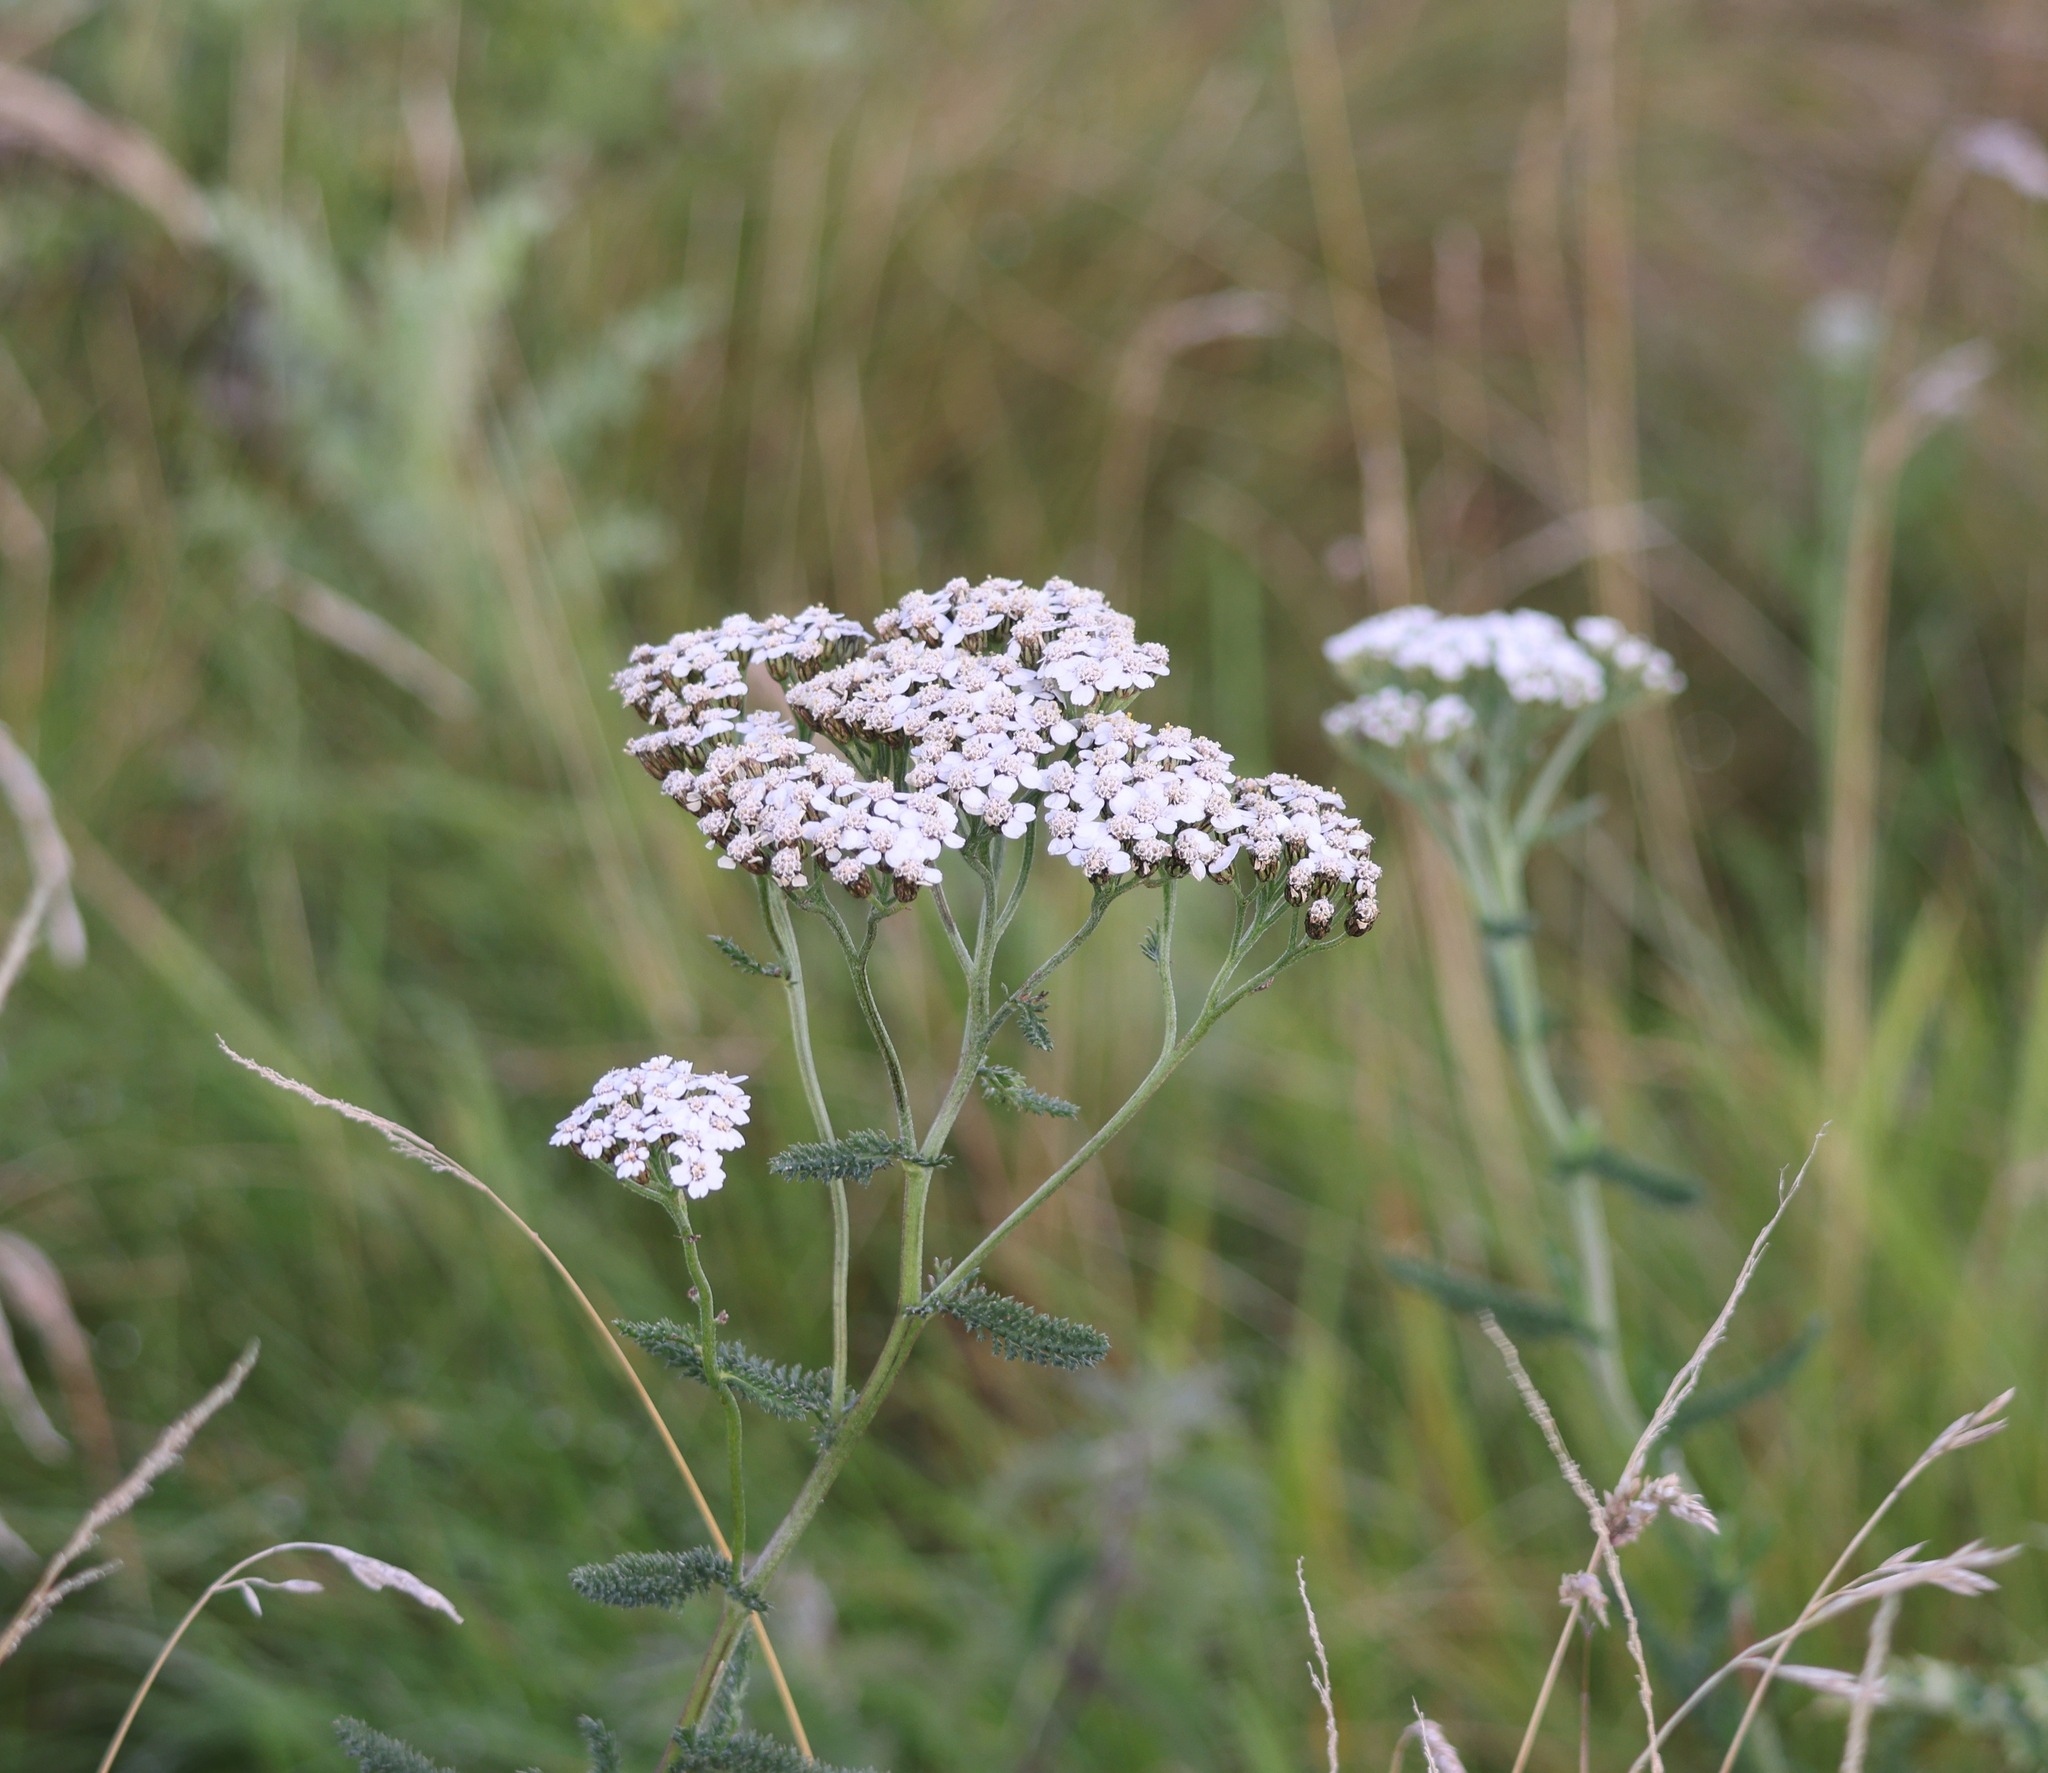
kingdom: Plantae
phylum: Tracheophyta
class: Magnoliopsida
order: Asterales
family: Asteraceae
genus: Achillea
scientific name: Achillea millefolium
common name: Yarrow
